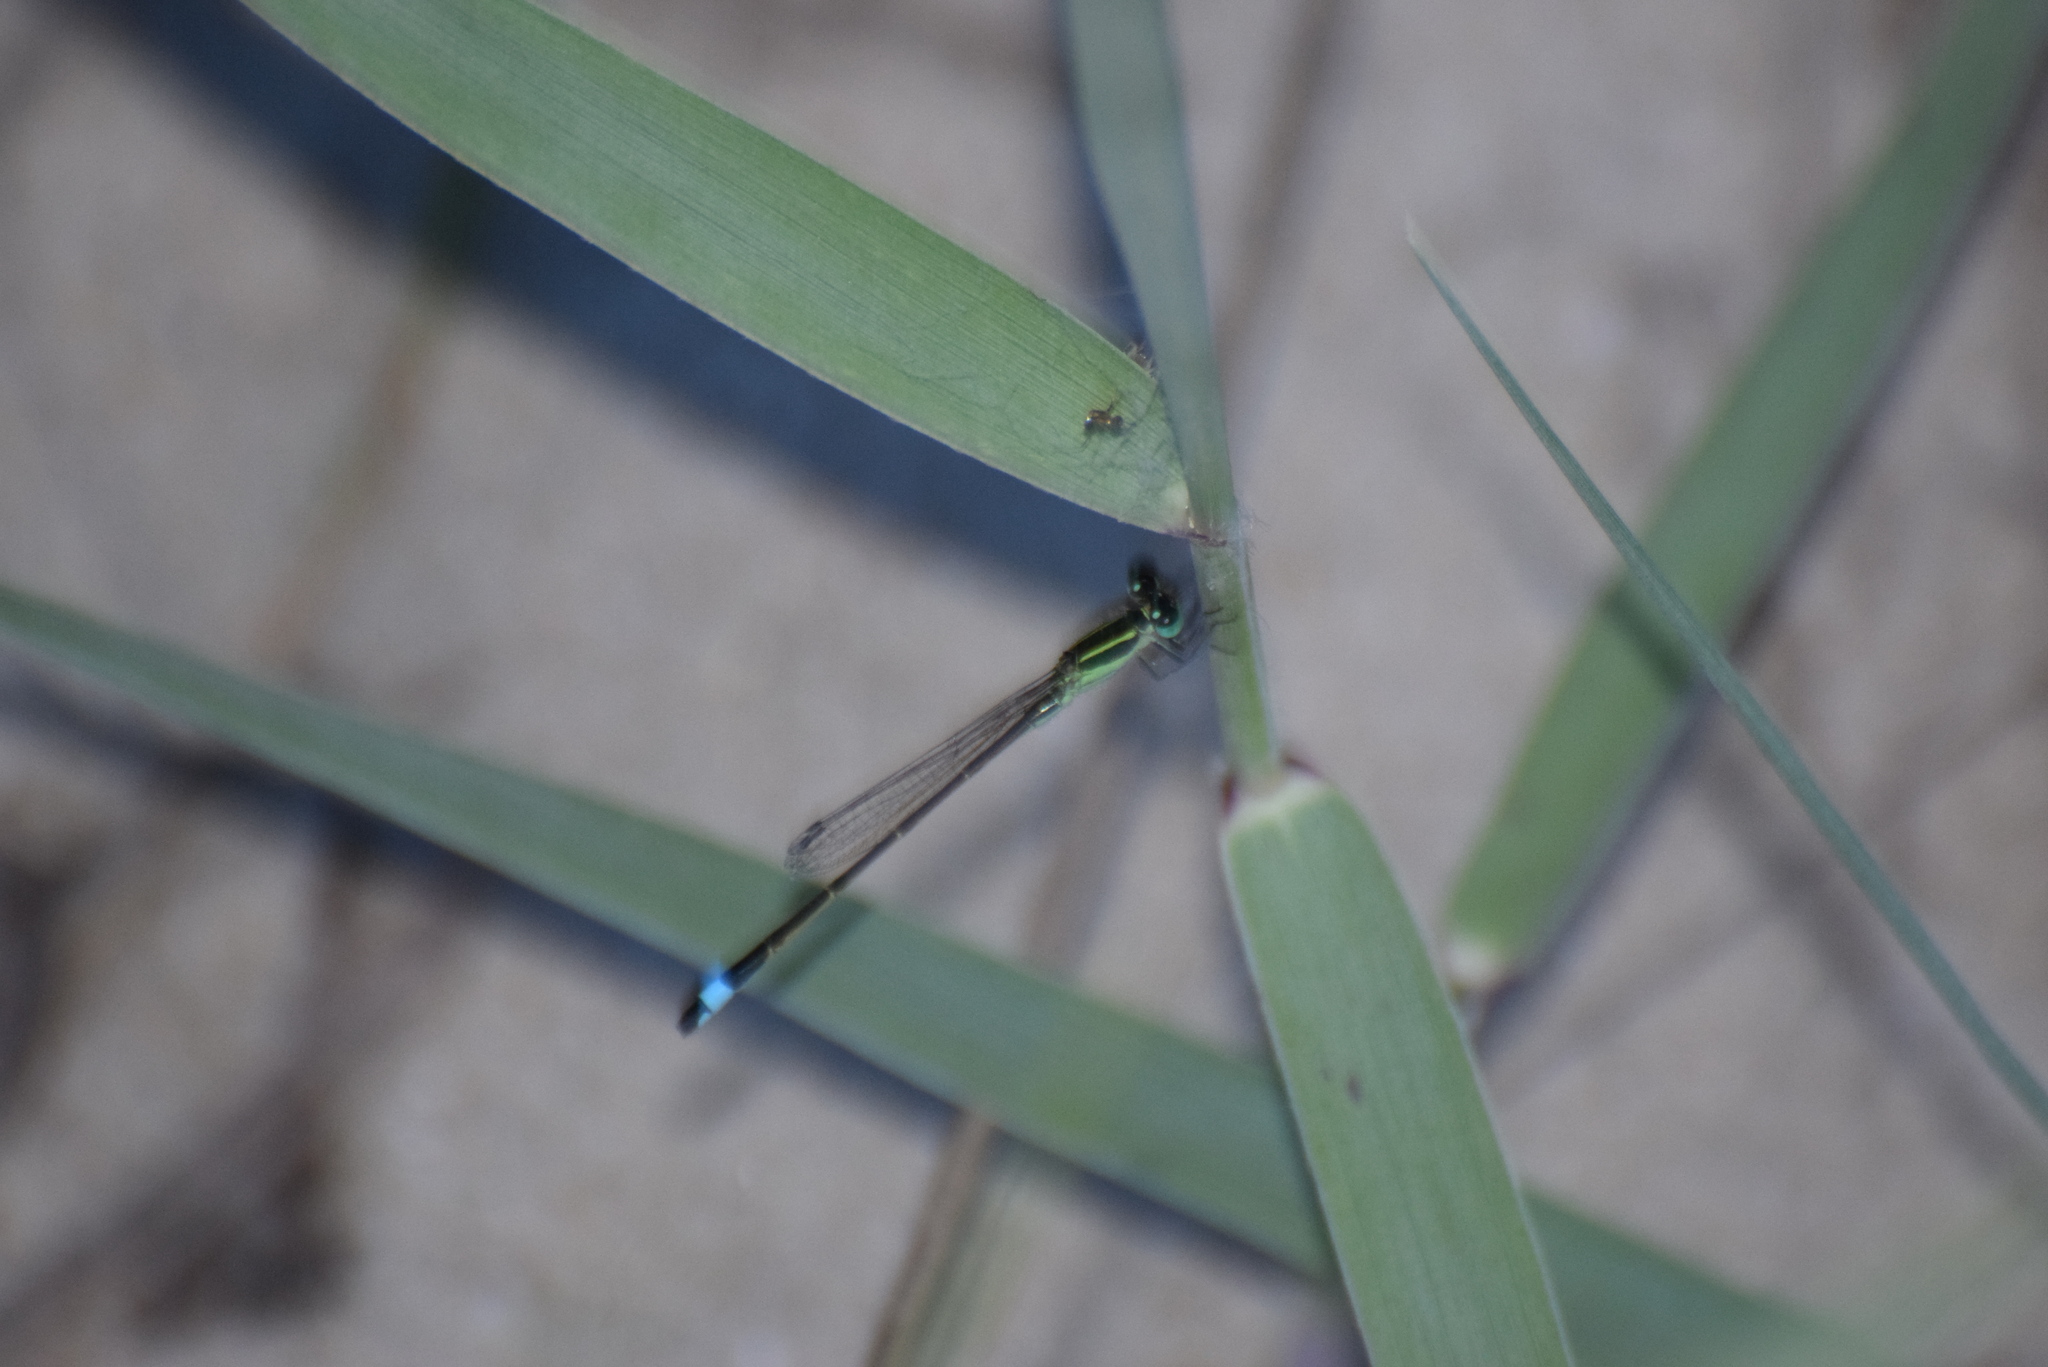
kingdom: Animalia
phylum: Arthropoda
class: Insecta
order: Odonata
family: Coenagrionidae
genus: Ischnura
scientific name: Ischnura ramburii
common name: Rambur's forktail
